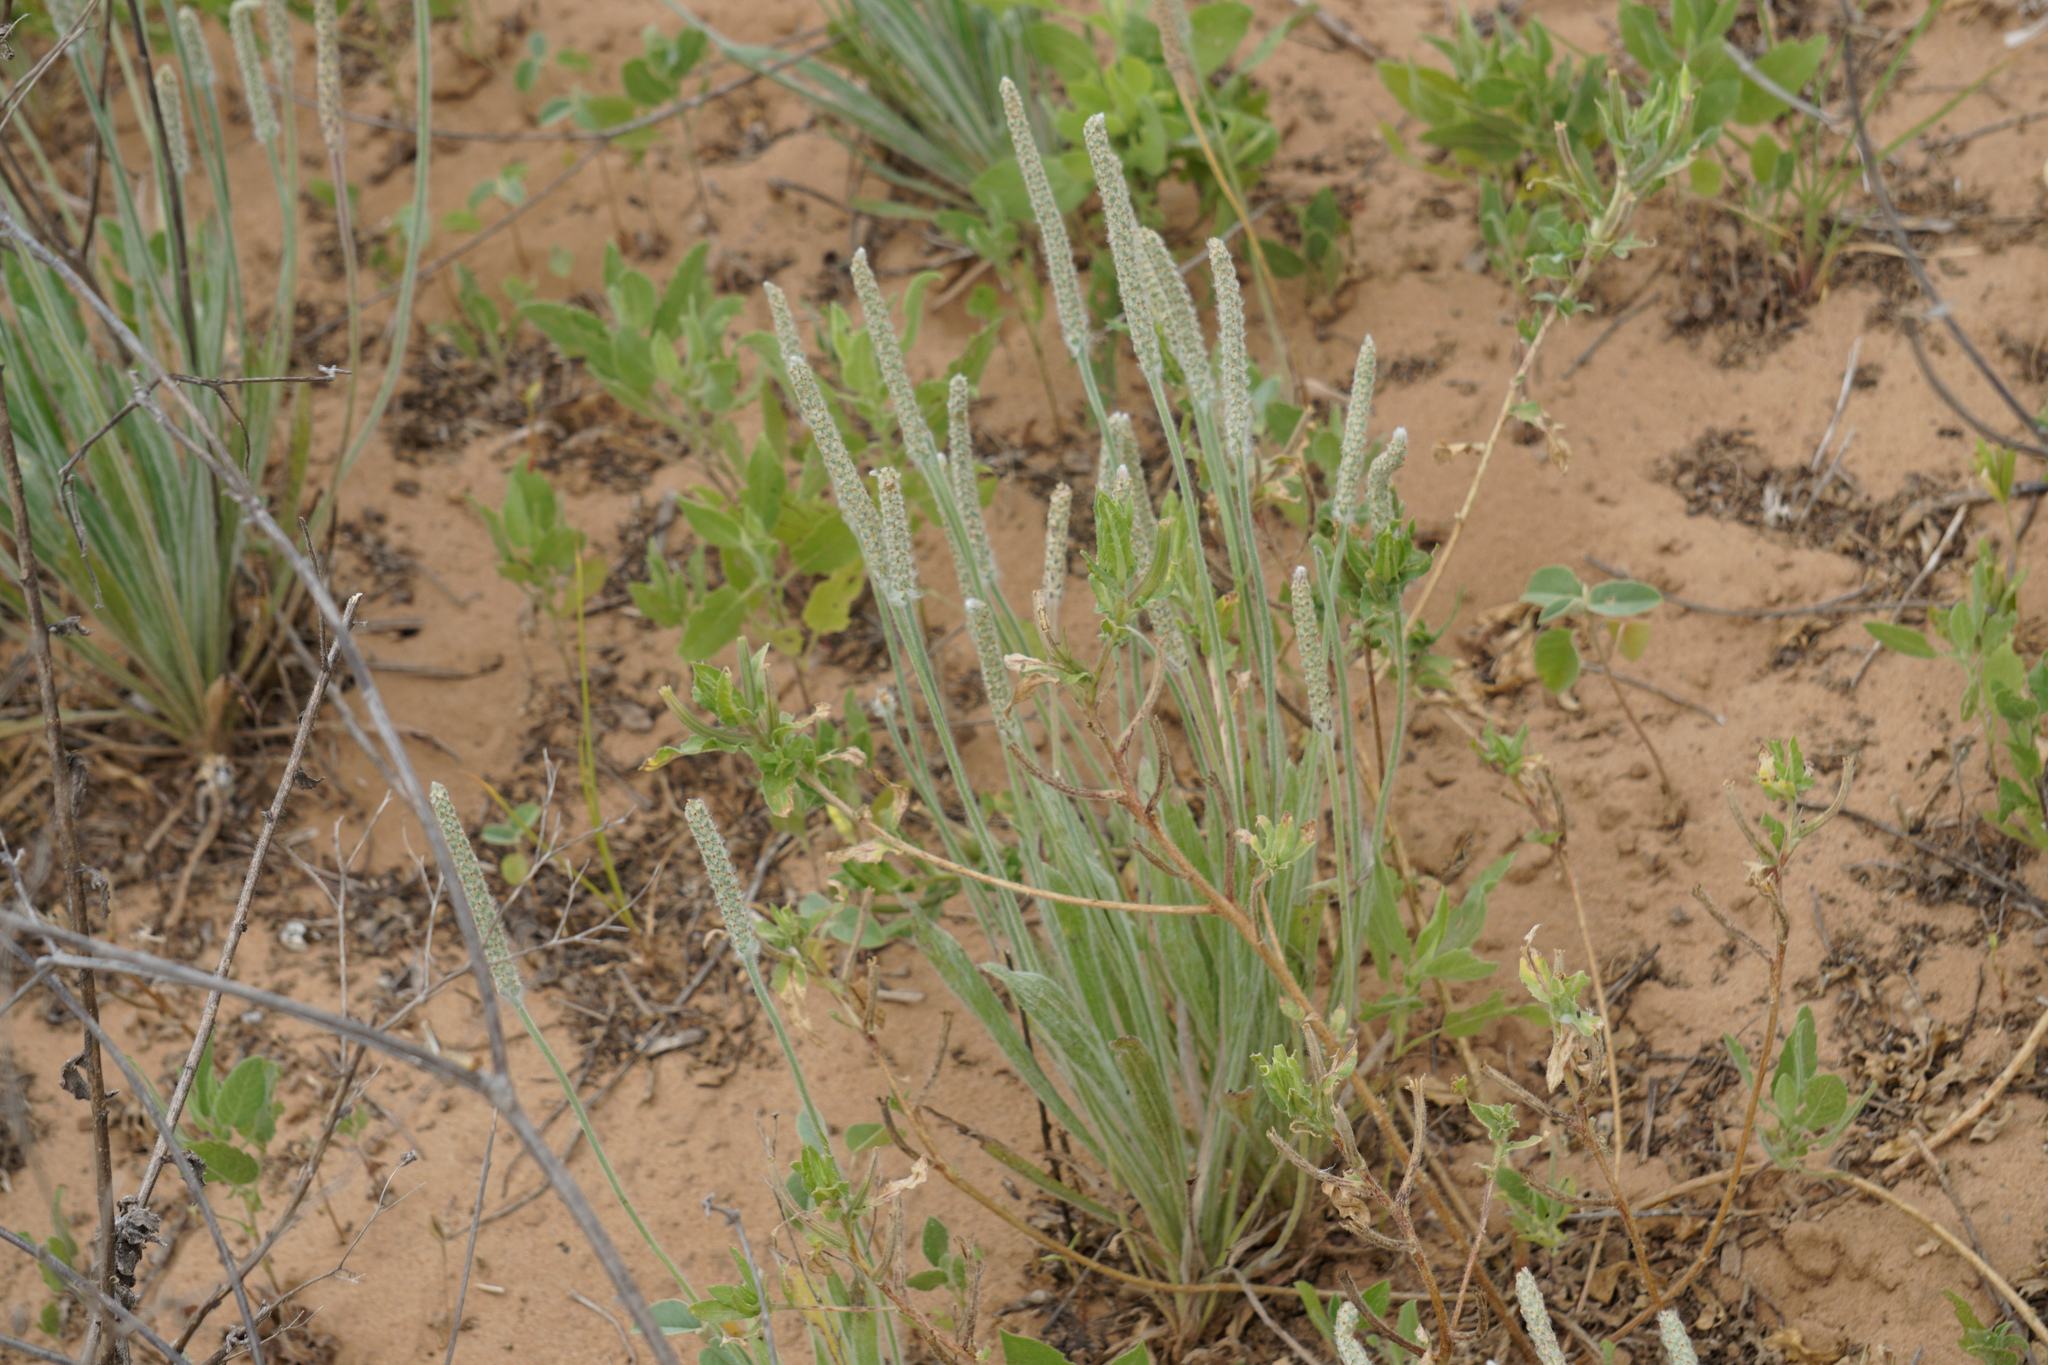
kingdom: Plantae
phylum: Tracheophyta
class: Magnoliopsida
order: Lamiales
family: Plantaginaceae
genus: Plantago
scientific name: Plantago hookeriana
